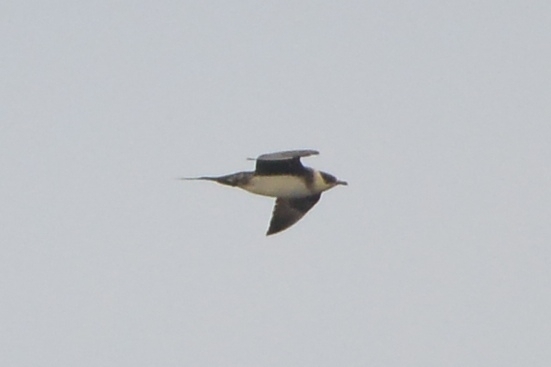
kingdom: Animalia
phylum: Chordata
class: Aves
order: Charadriiformes
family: Stercorariidae
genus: Stercorarius
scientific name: Stercorarius parasiticus
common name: Parasitic jaeger
